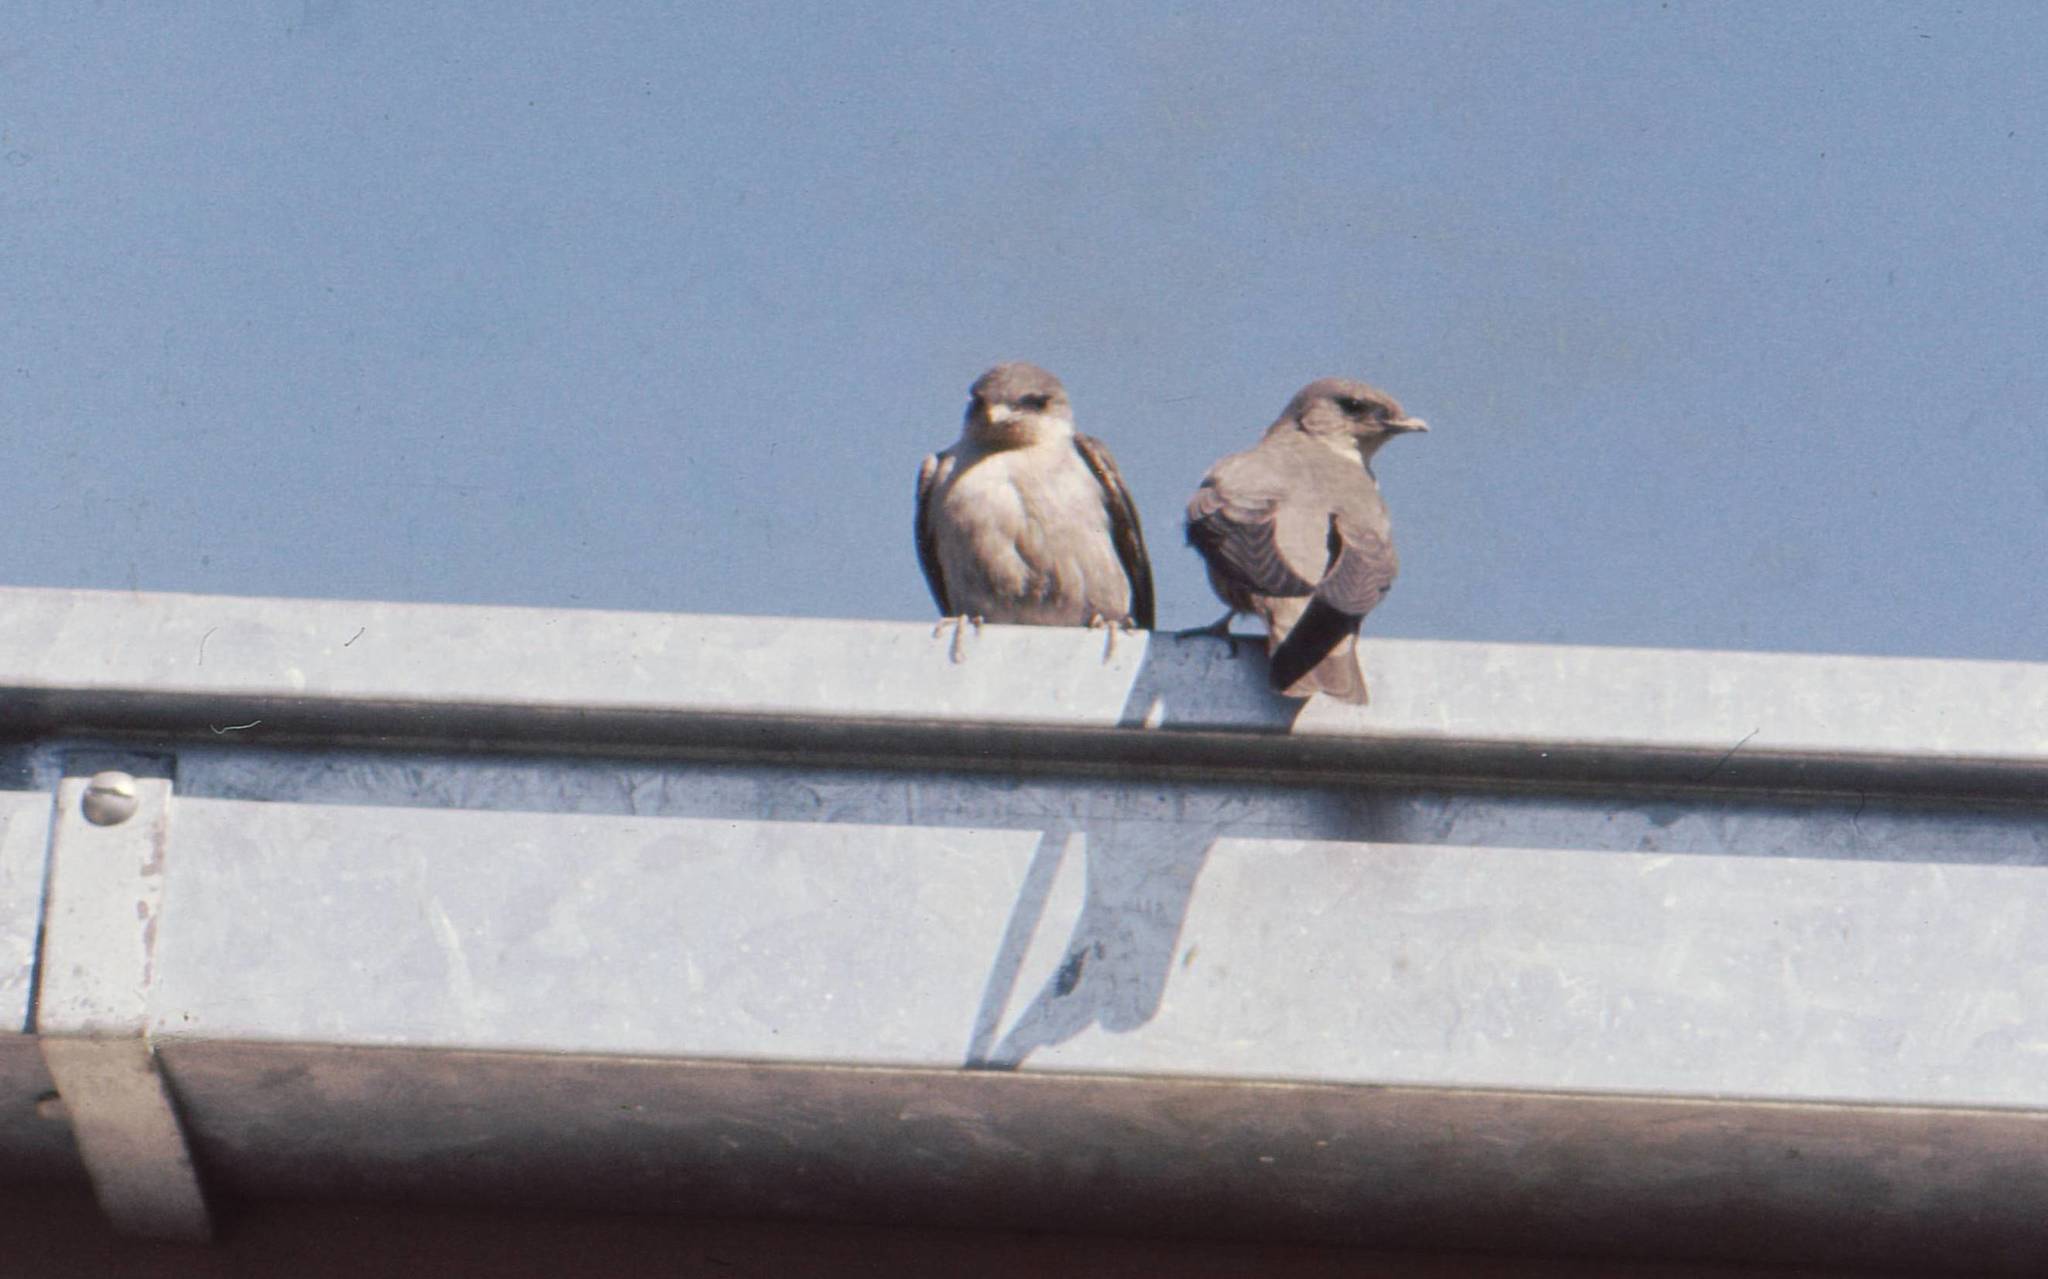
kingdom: Animalia
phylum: Chordata
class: Aves
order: Passeriformes
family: Hirundinidae
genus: Ptyonoprogne
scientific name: Ptyonoprogne fuligula
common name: Rock martin
